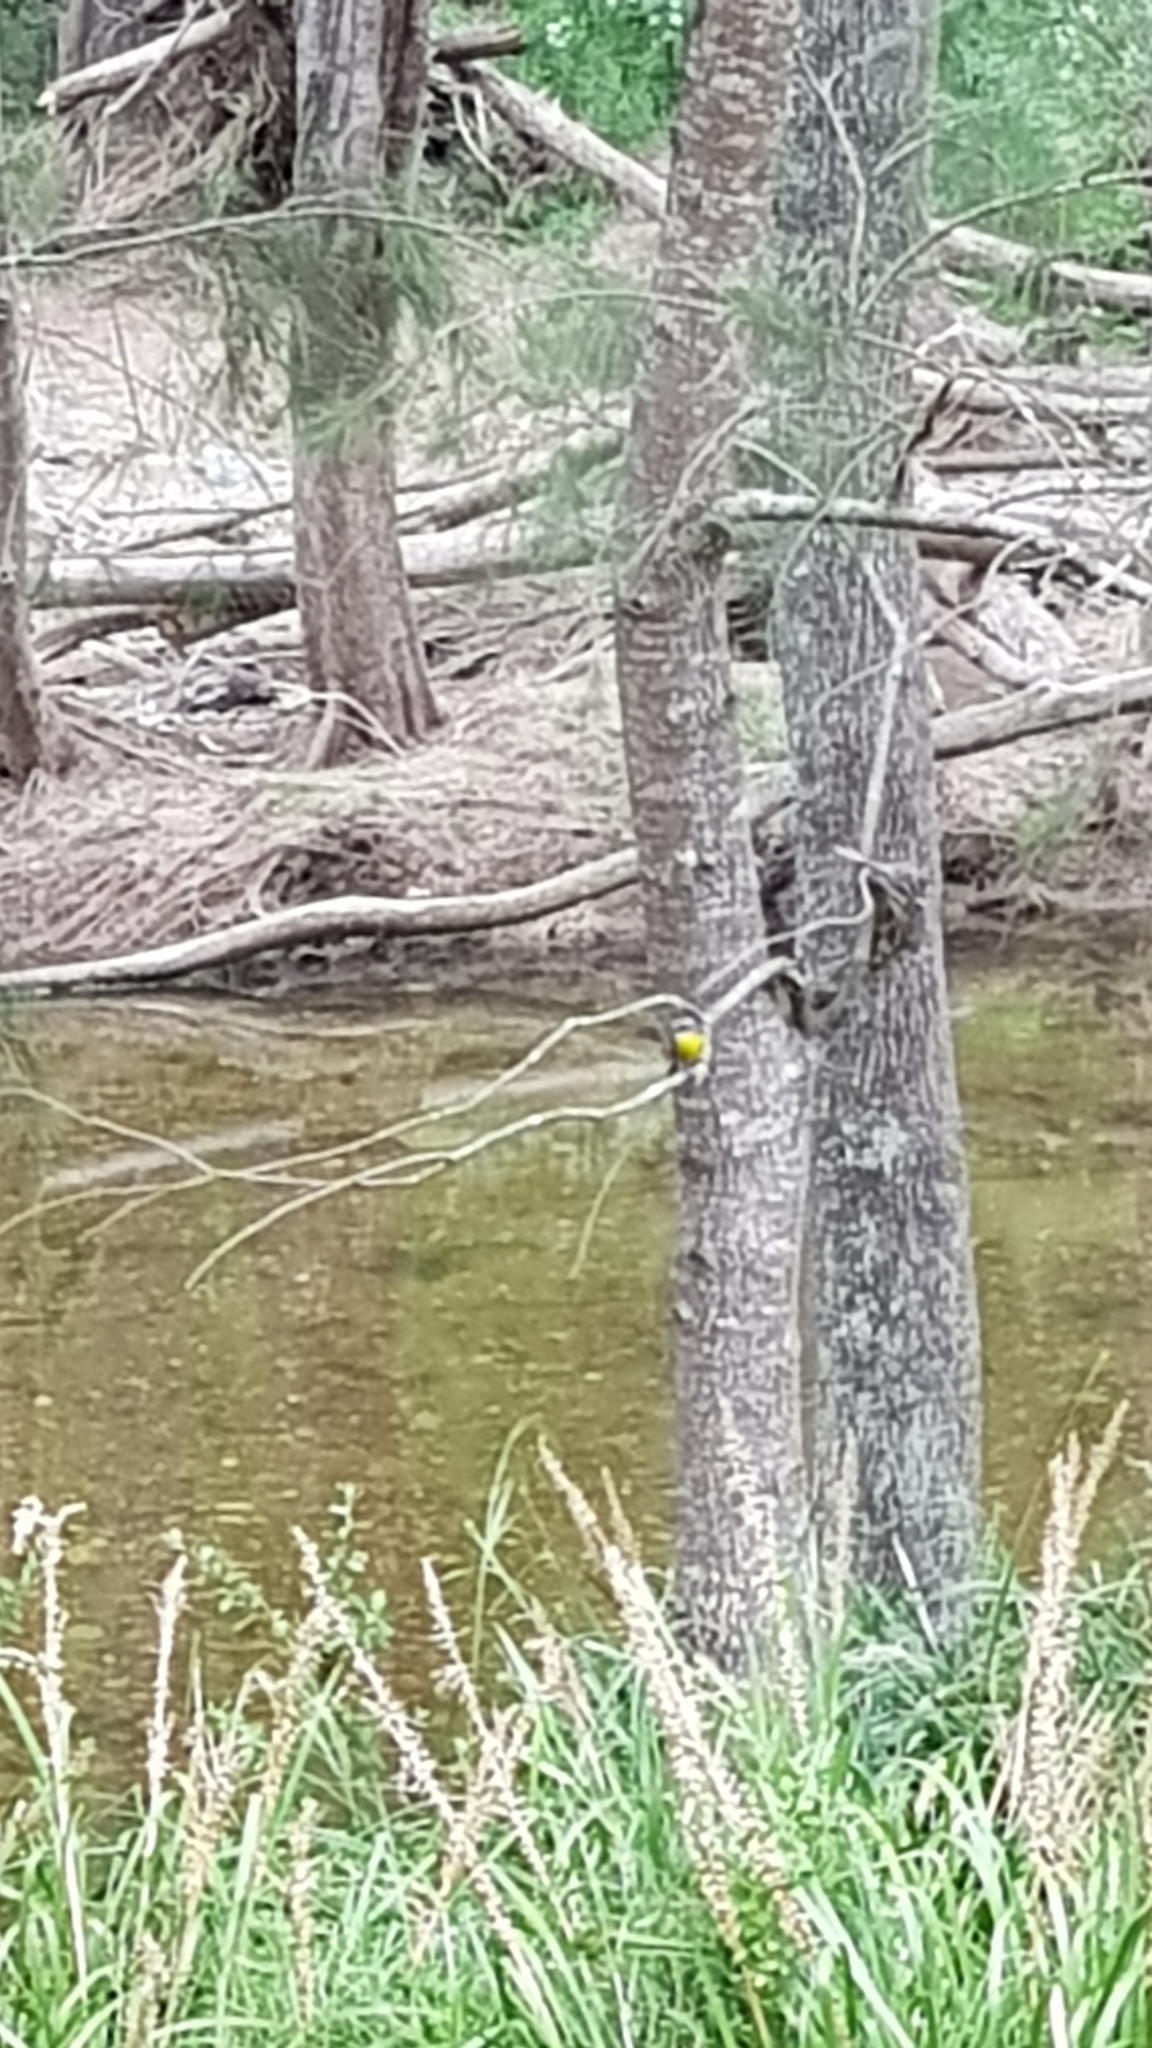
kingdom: Animalia
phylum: Chordata
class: Aves
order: Passeriformes
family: Petroicidae
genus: Eopsaltria
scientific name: Eopsaltria australis
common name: Eastern yellow robin
